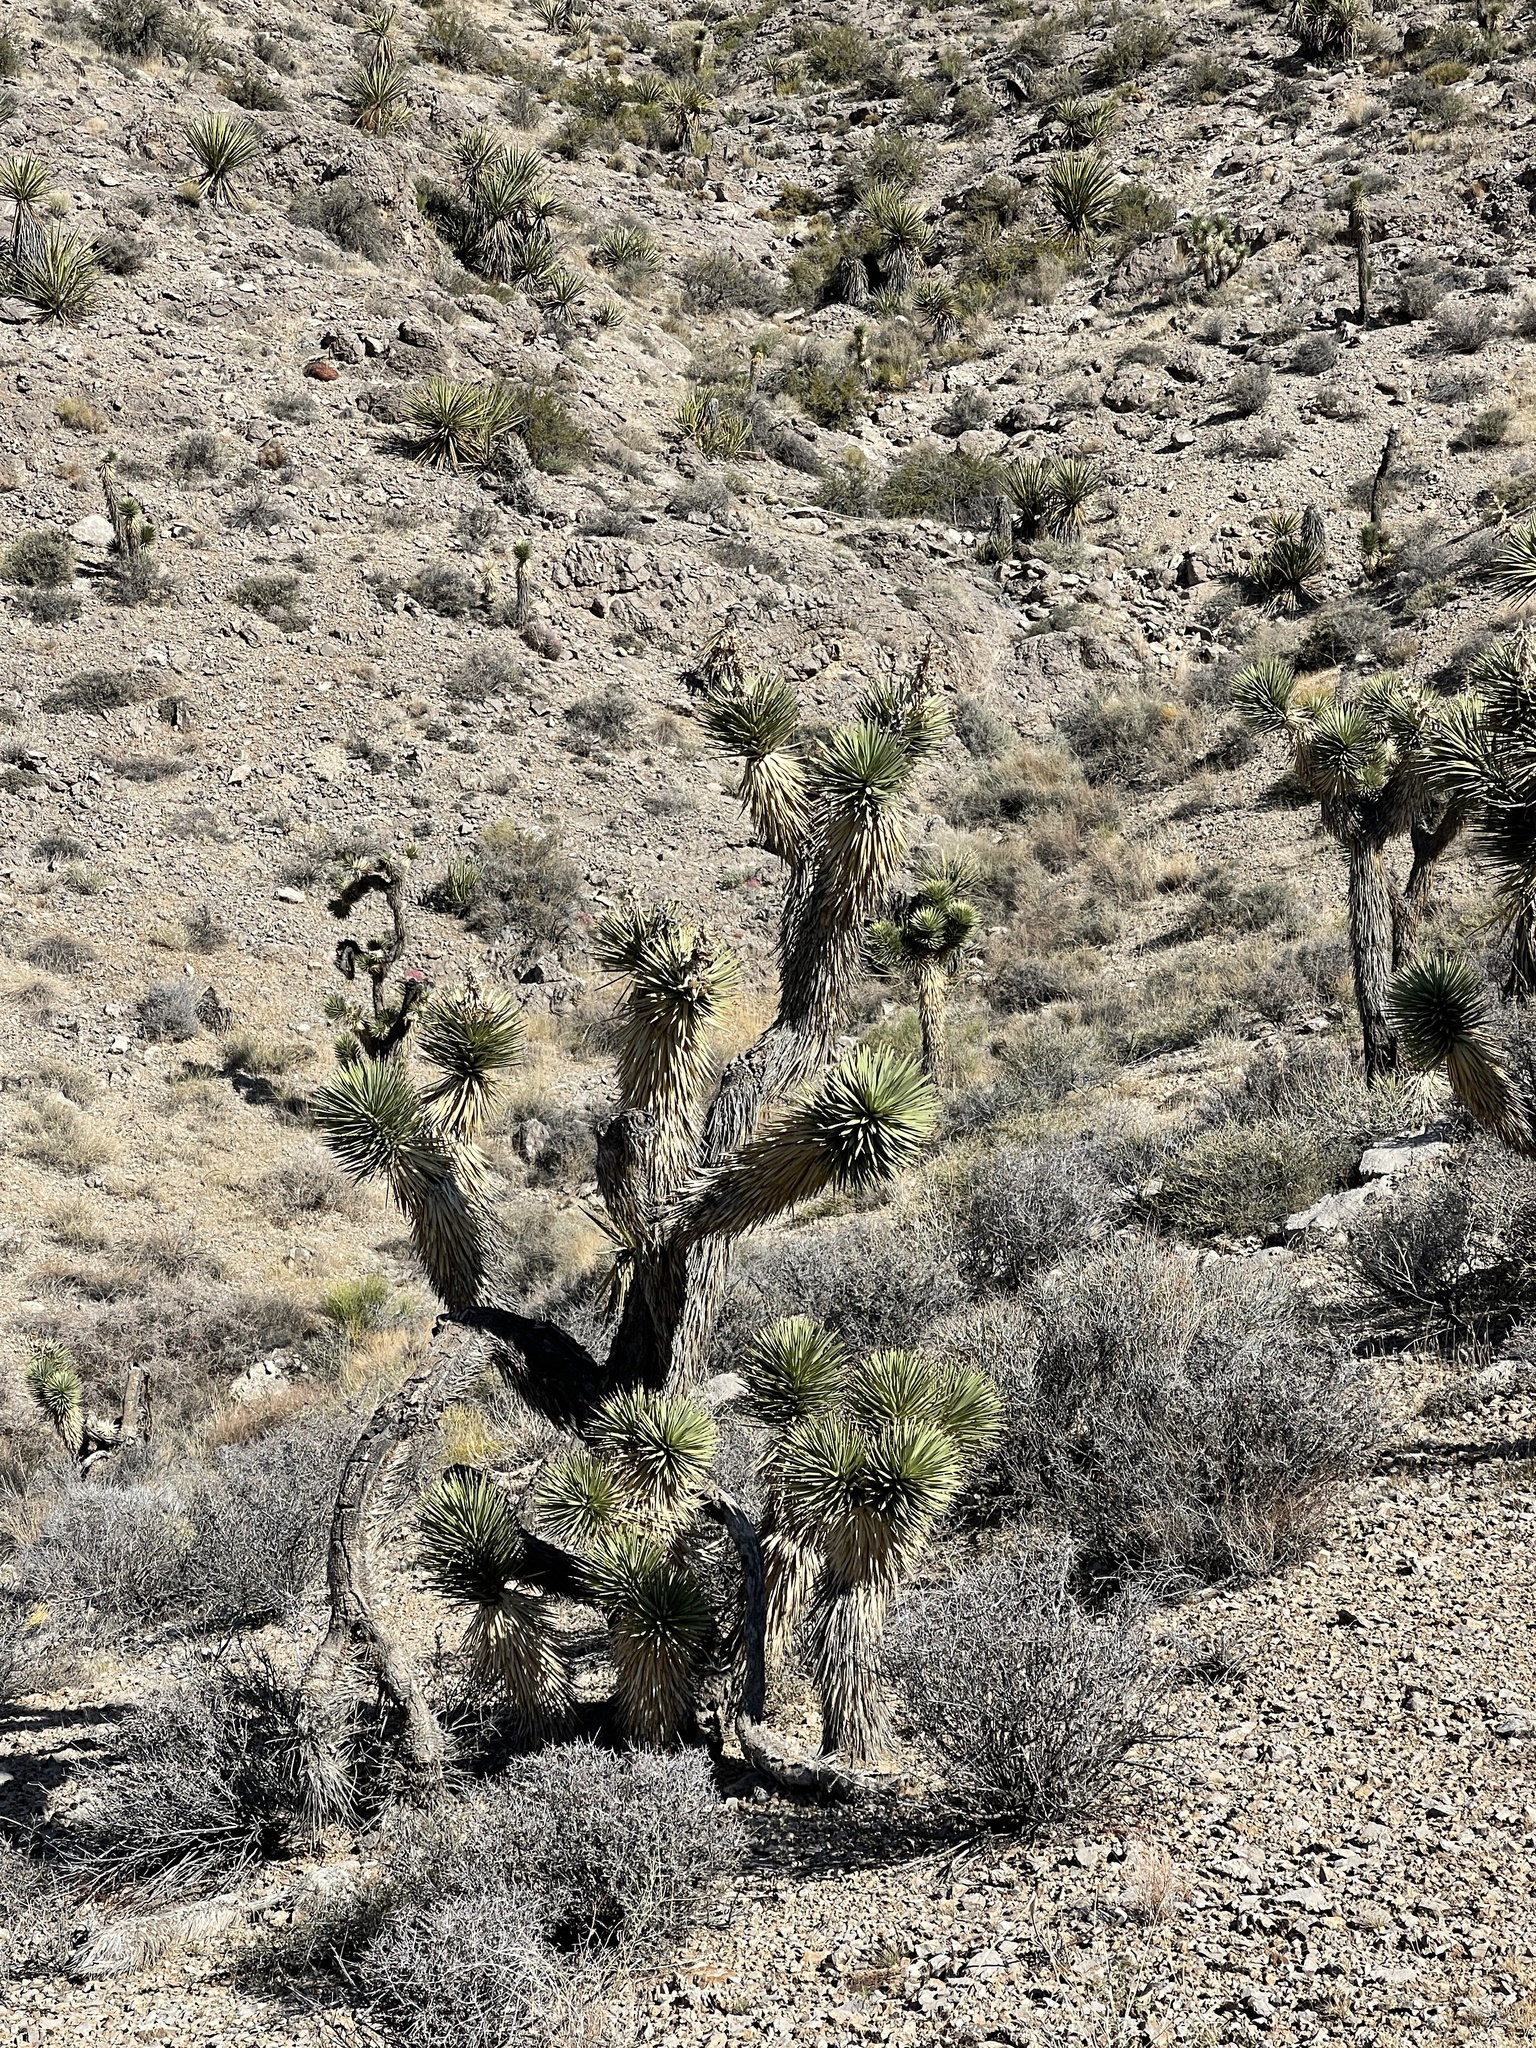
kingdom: Plantae
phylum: Tracheophyta
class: Liliopsida
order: Asparagales
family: Asparagaceae
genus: Yucca
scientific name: Yucca brevifolia
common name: Joshua tree
